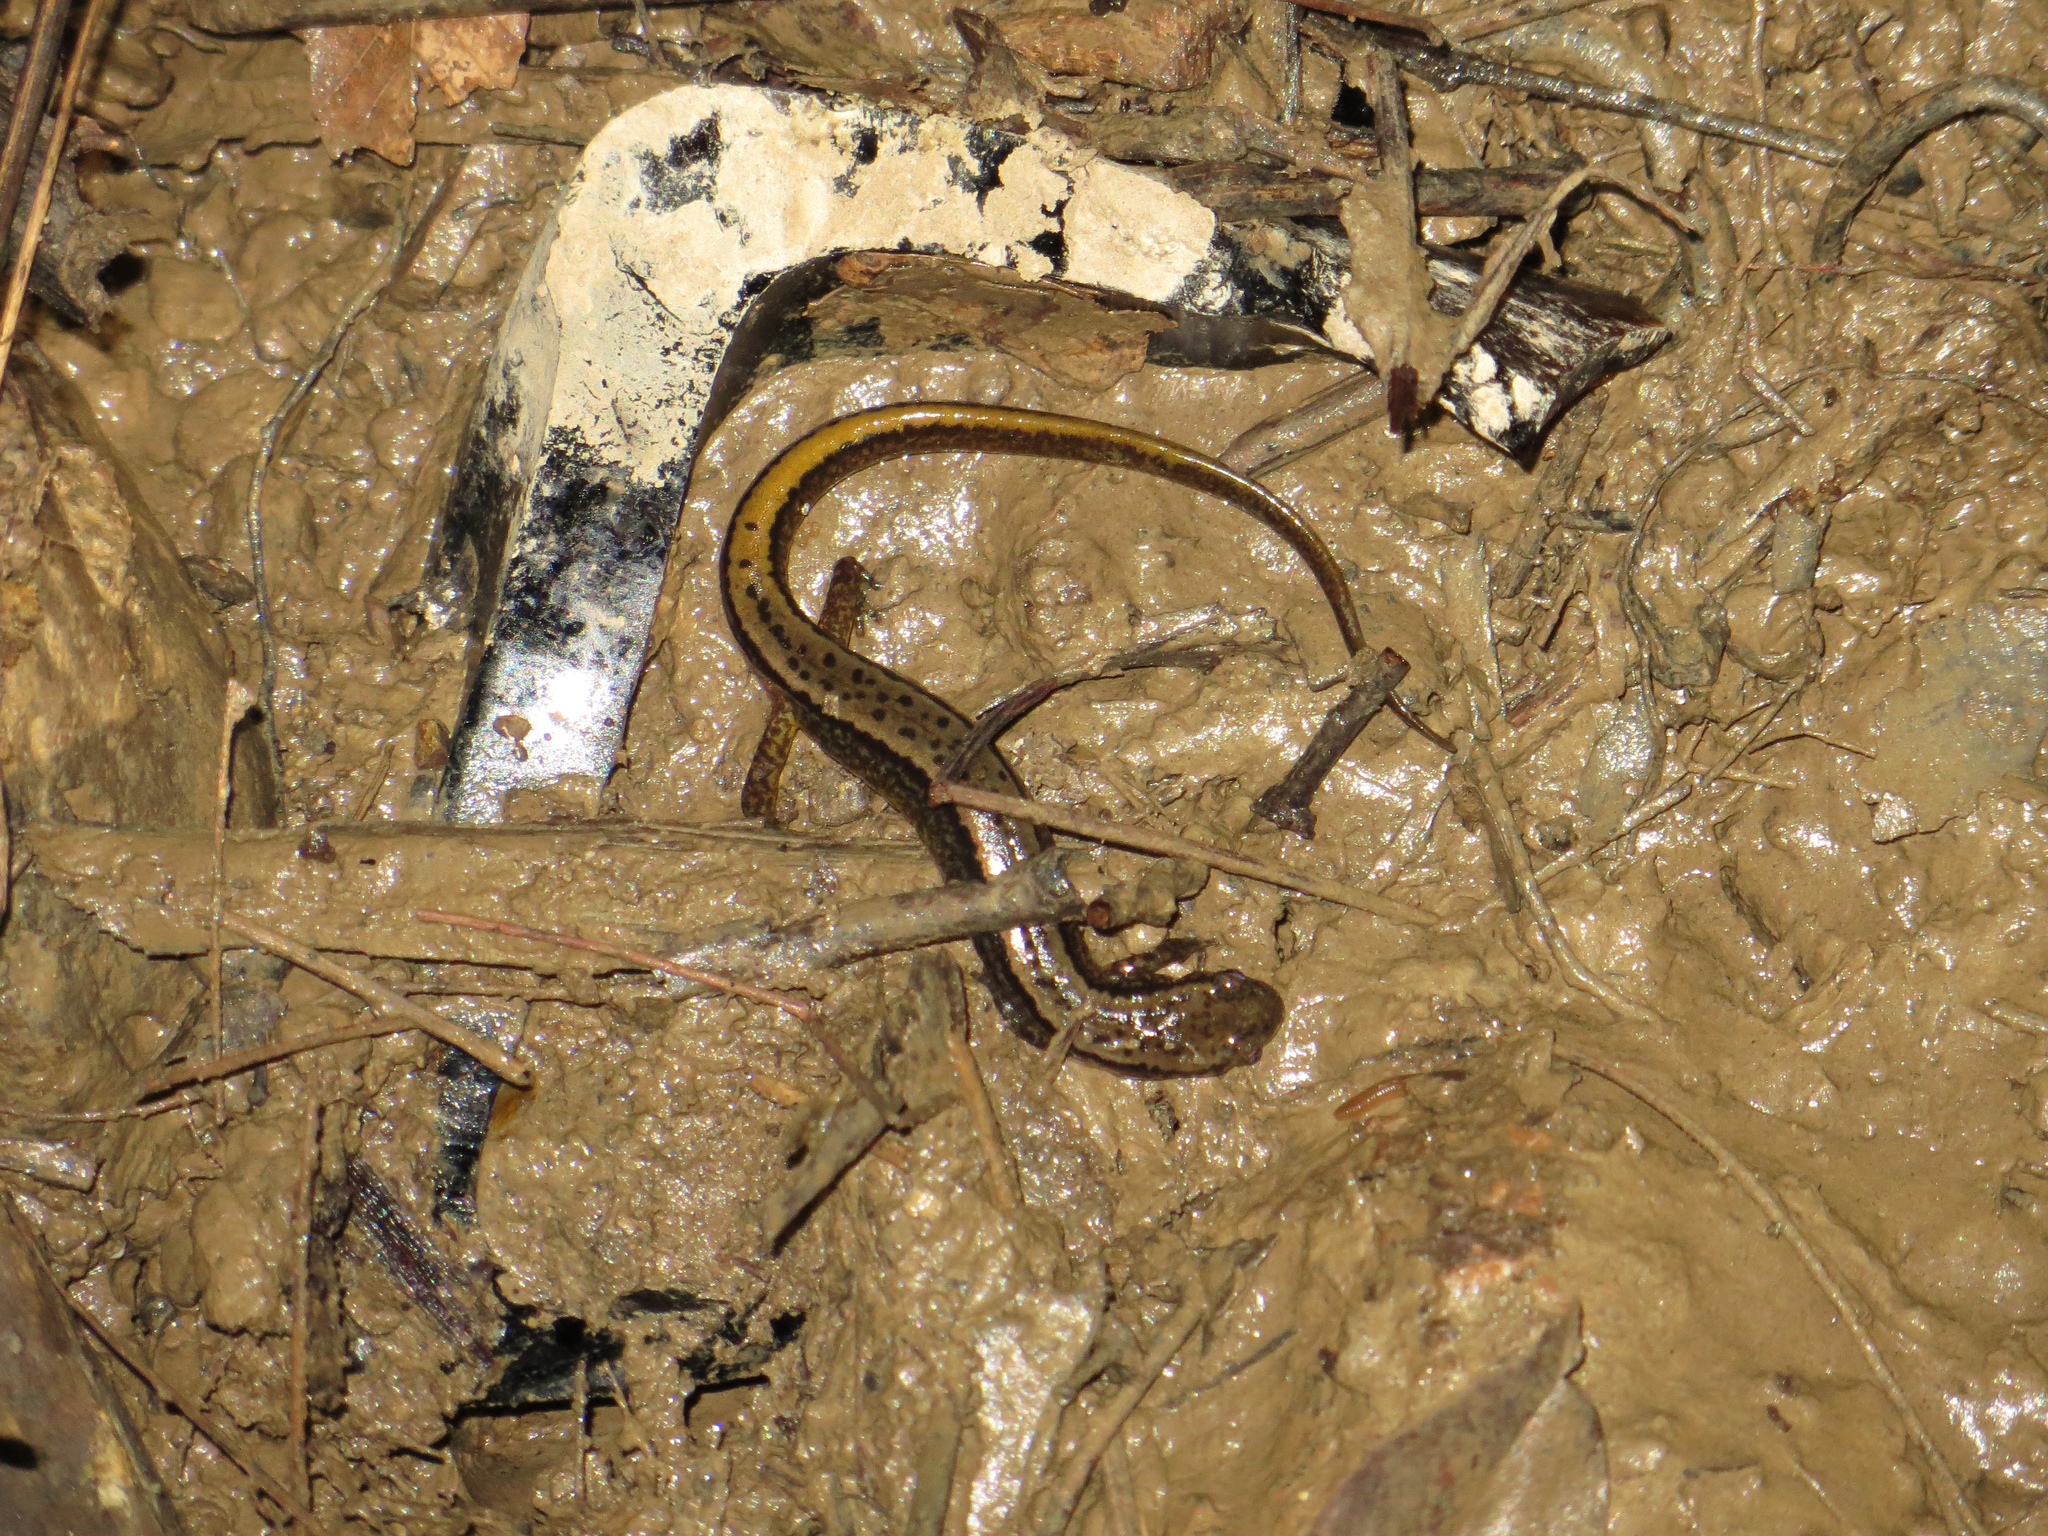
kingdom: Animalia
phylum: Chordata
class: Amphibia
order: Caudata
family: Plethodontidae
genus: Eurycea
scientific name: Eurycea bislineata
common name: Northern two-lined salamander
